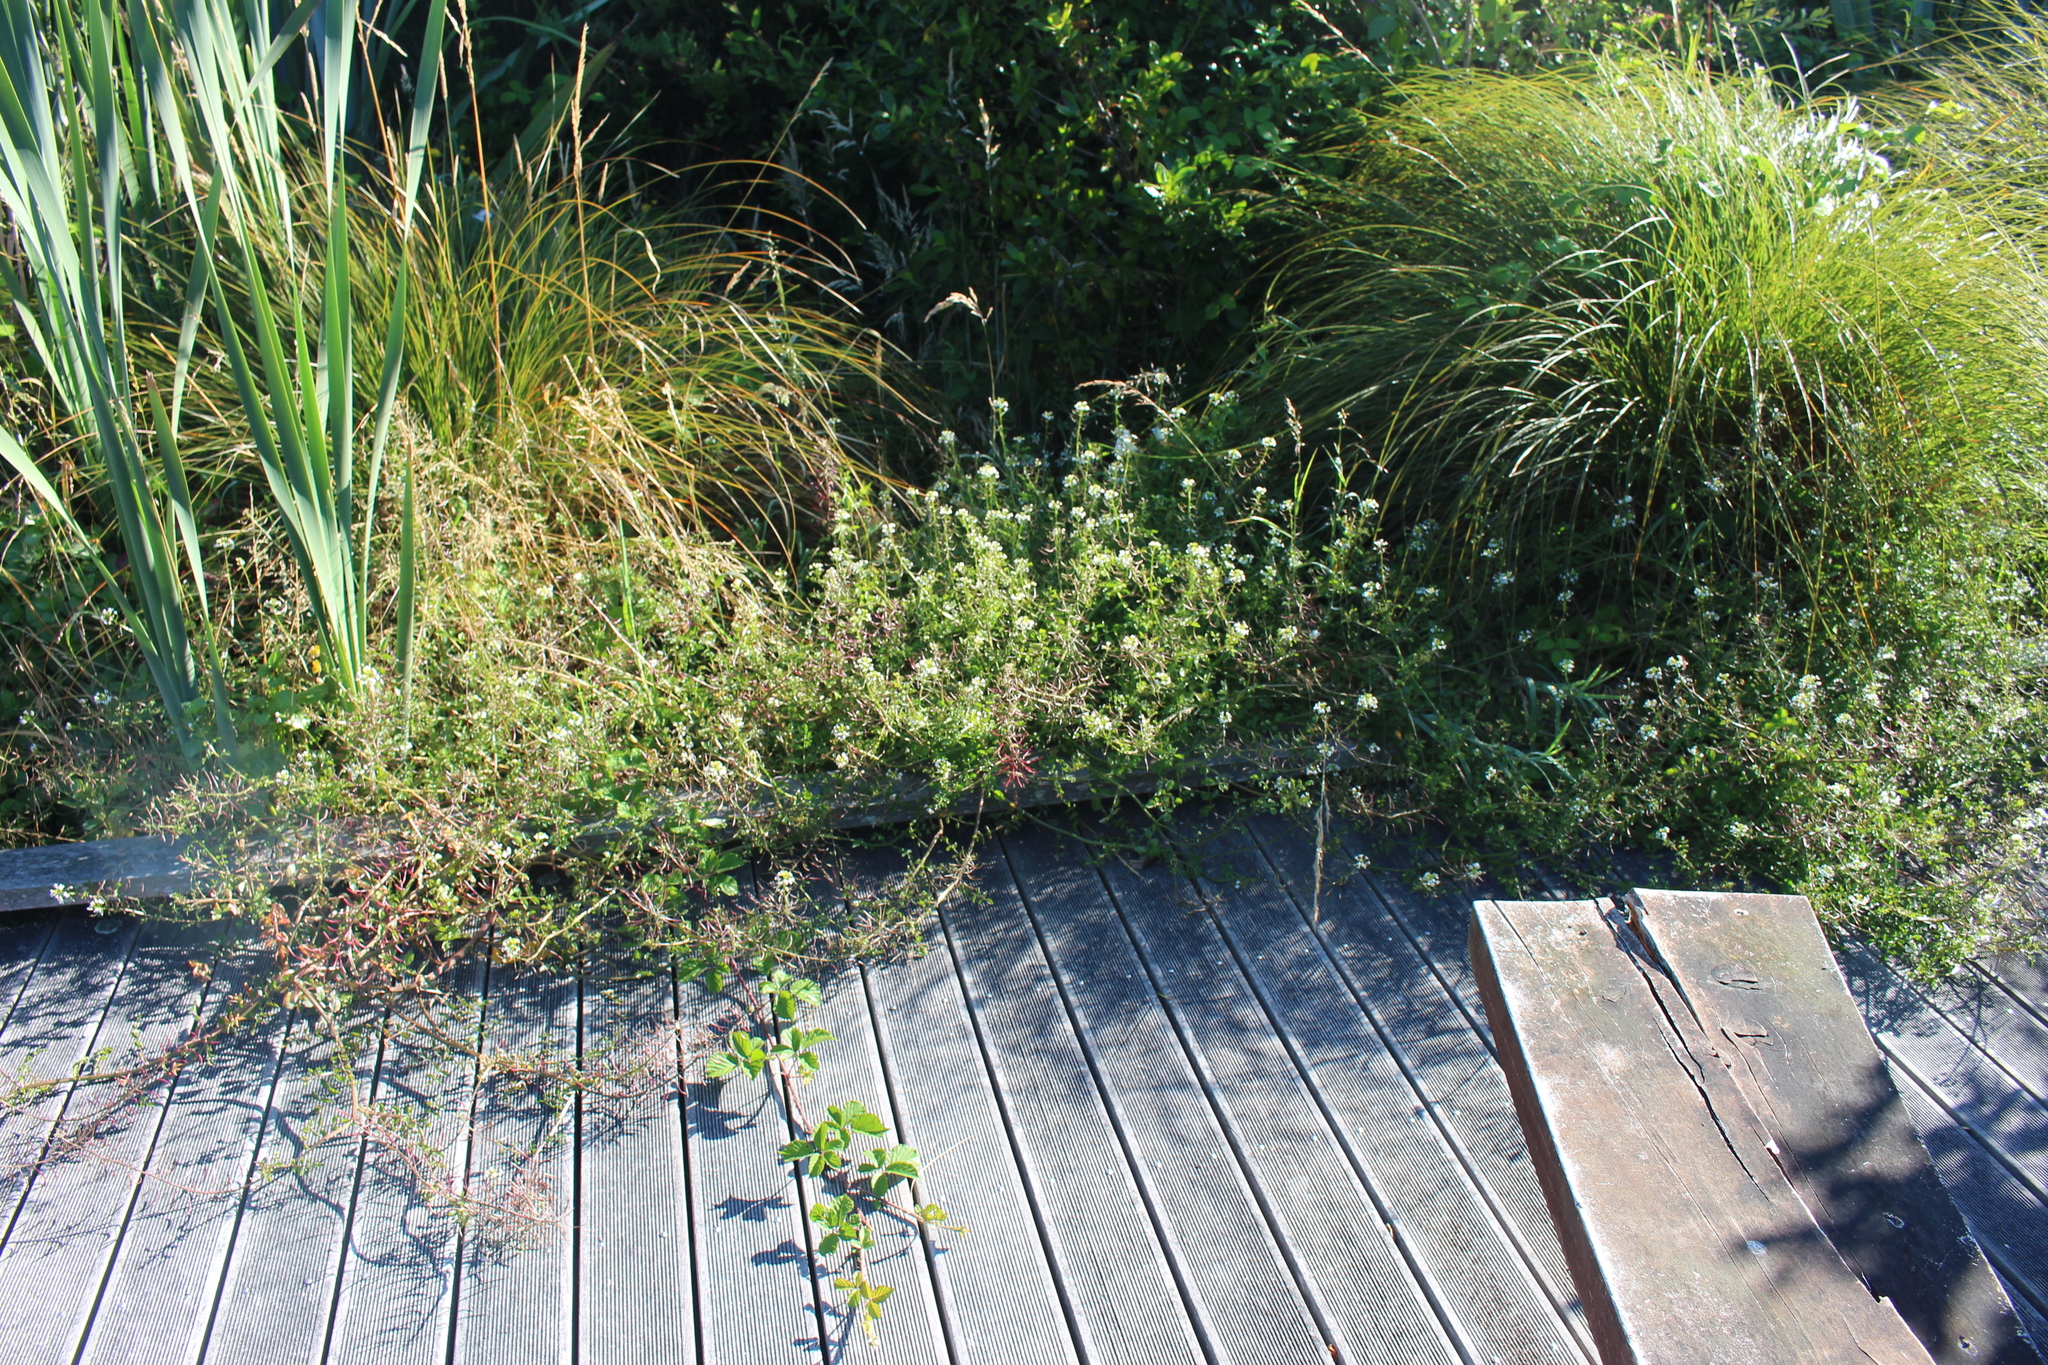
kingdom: Plantae
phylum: Tracheophyta
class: Magnoliopsida
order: Brassicales
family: Brassicaceae
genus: Nasturtium
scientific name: Nasturtium microphyllum
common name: Onerow yellowcress
